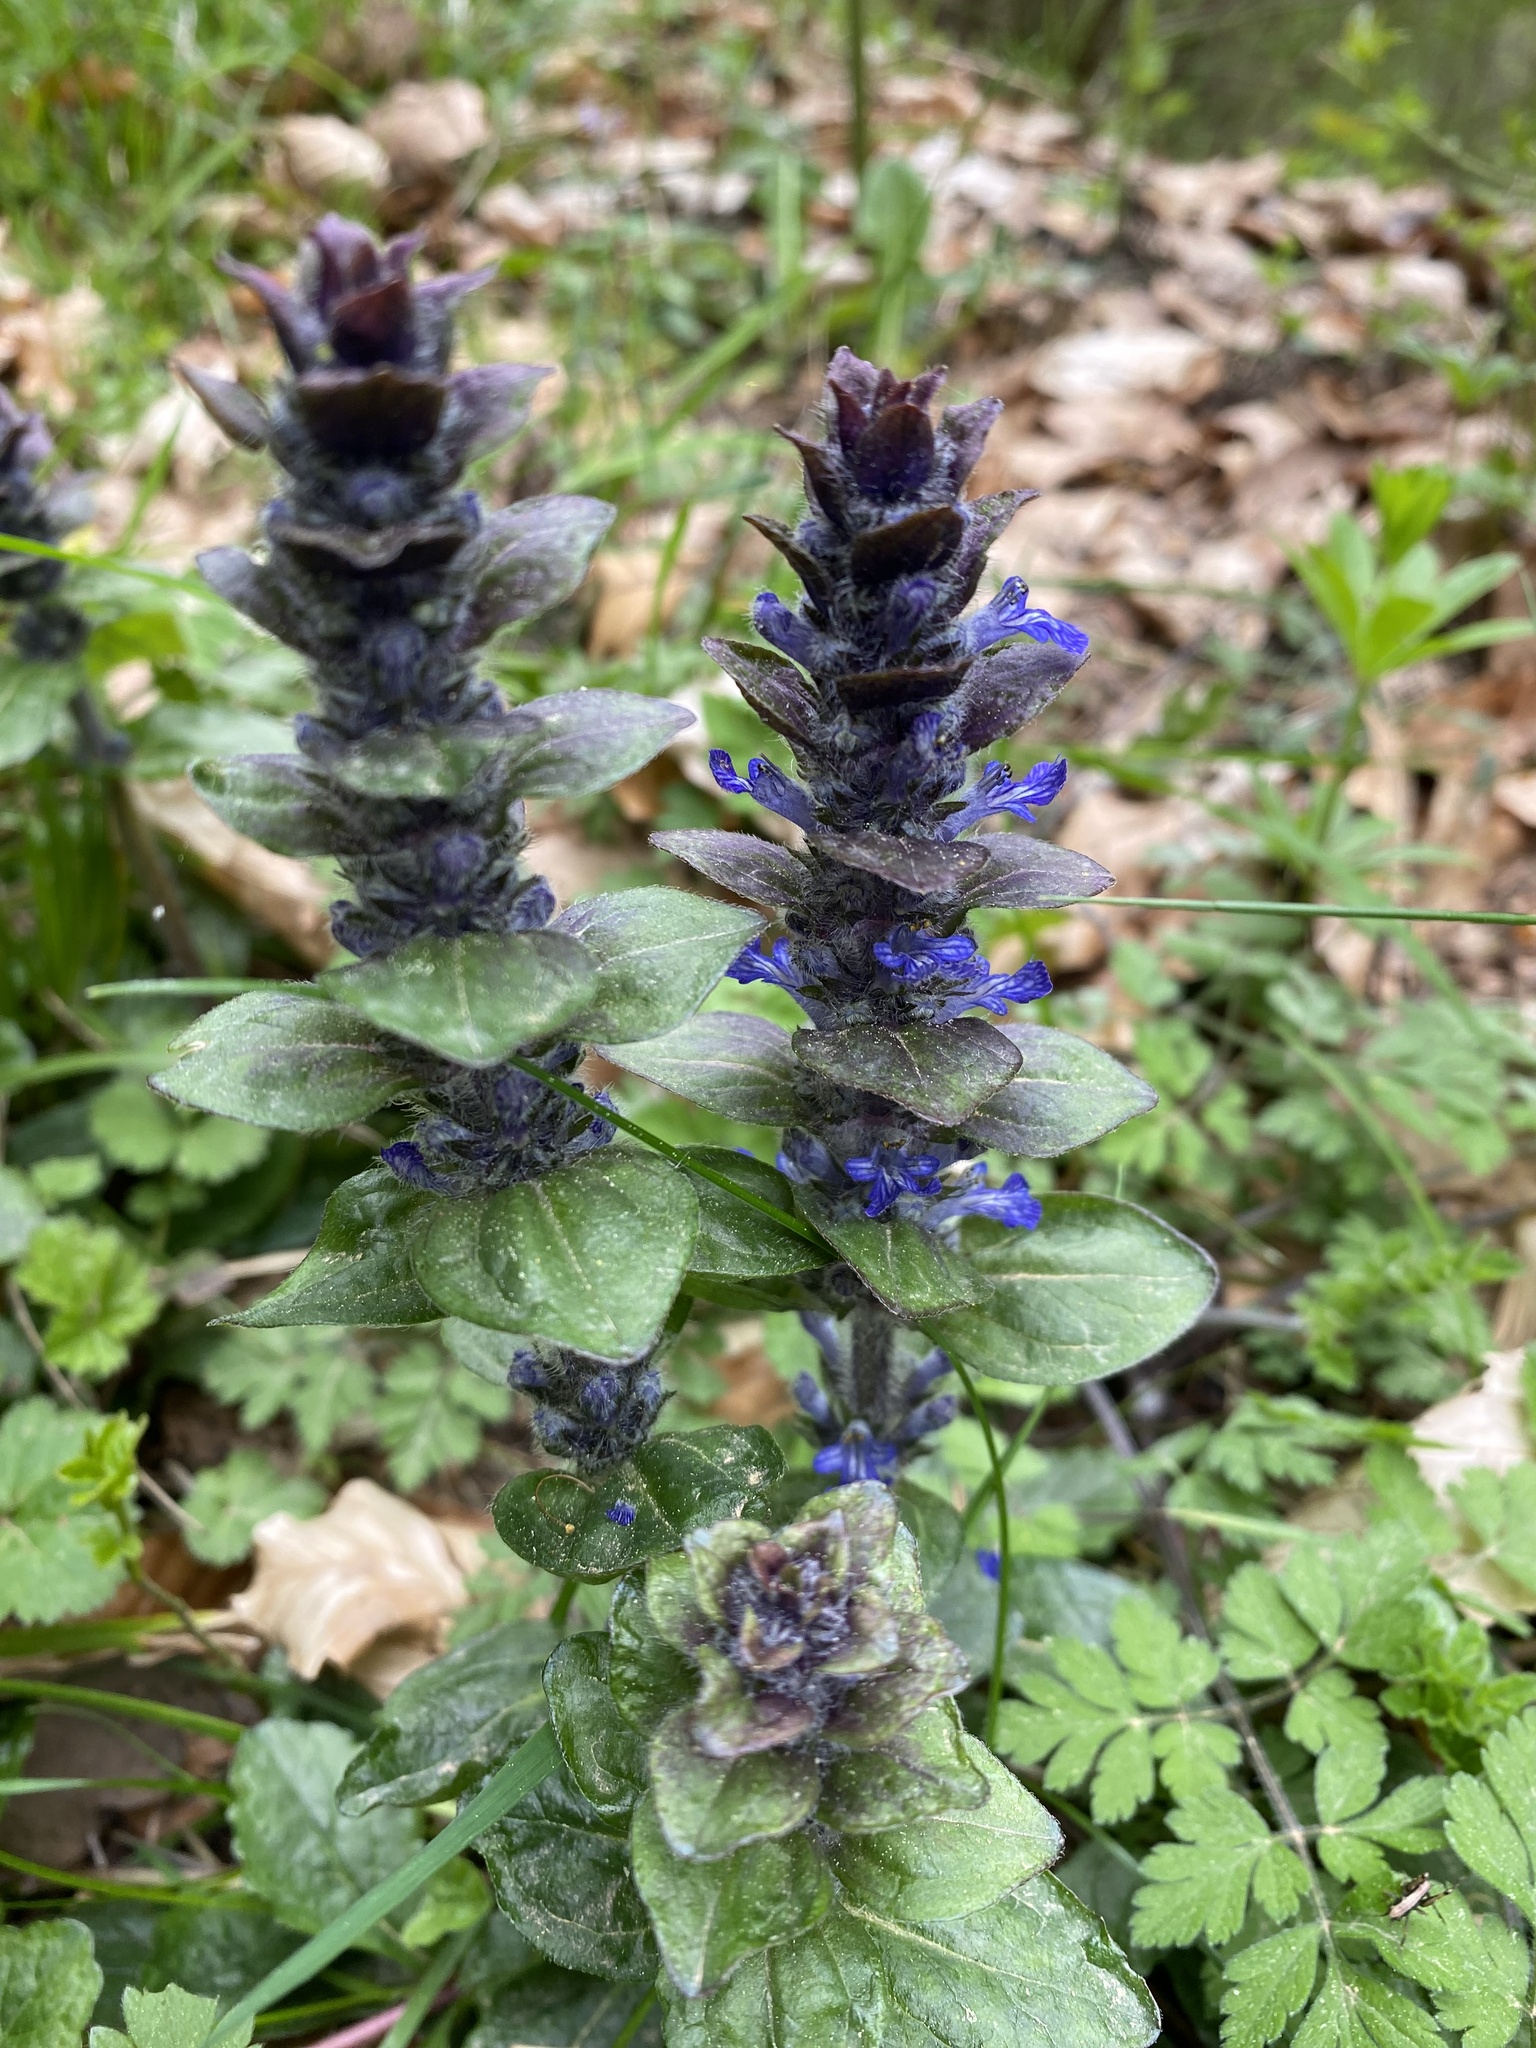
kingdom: Plantae
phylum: Tracheophyta
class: Magnoliopsida
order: Lamiales
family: Lamiaceae
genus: Ajuga
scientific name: Ajuga reptans
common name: Bugle
